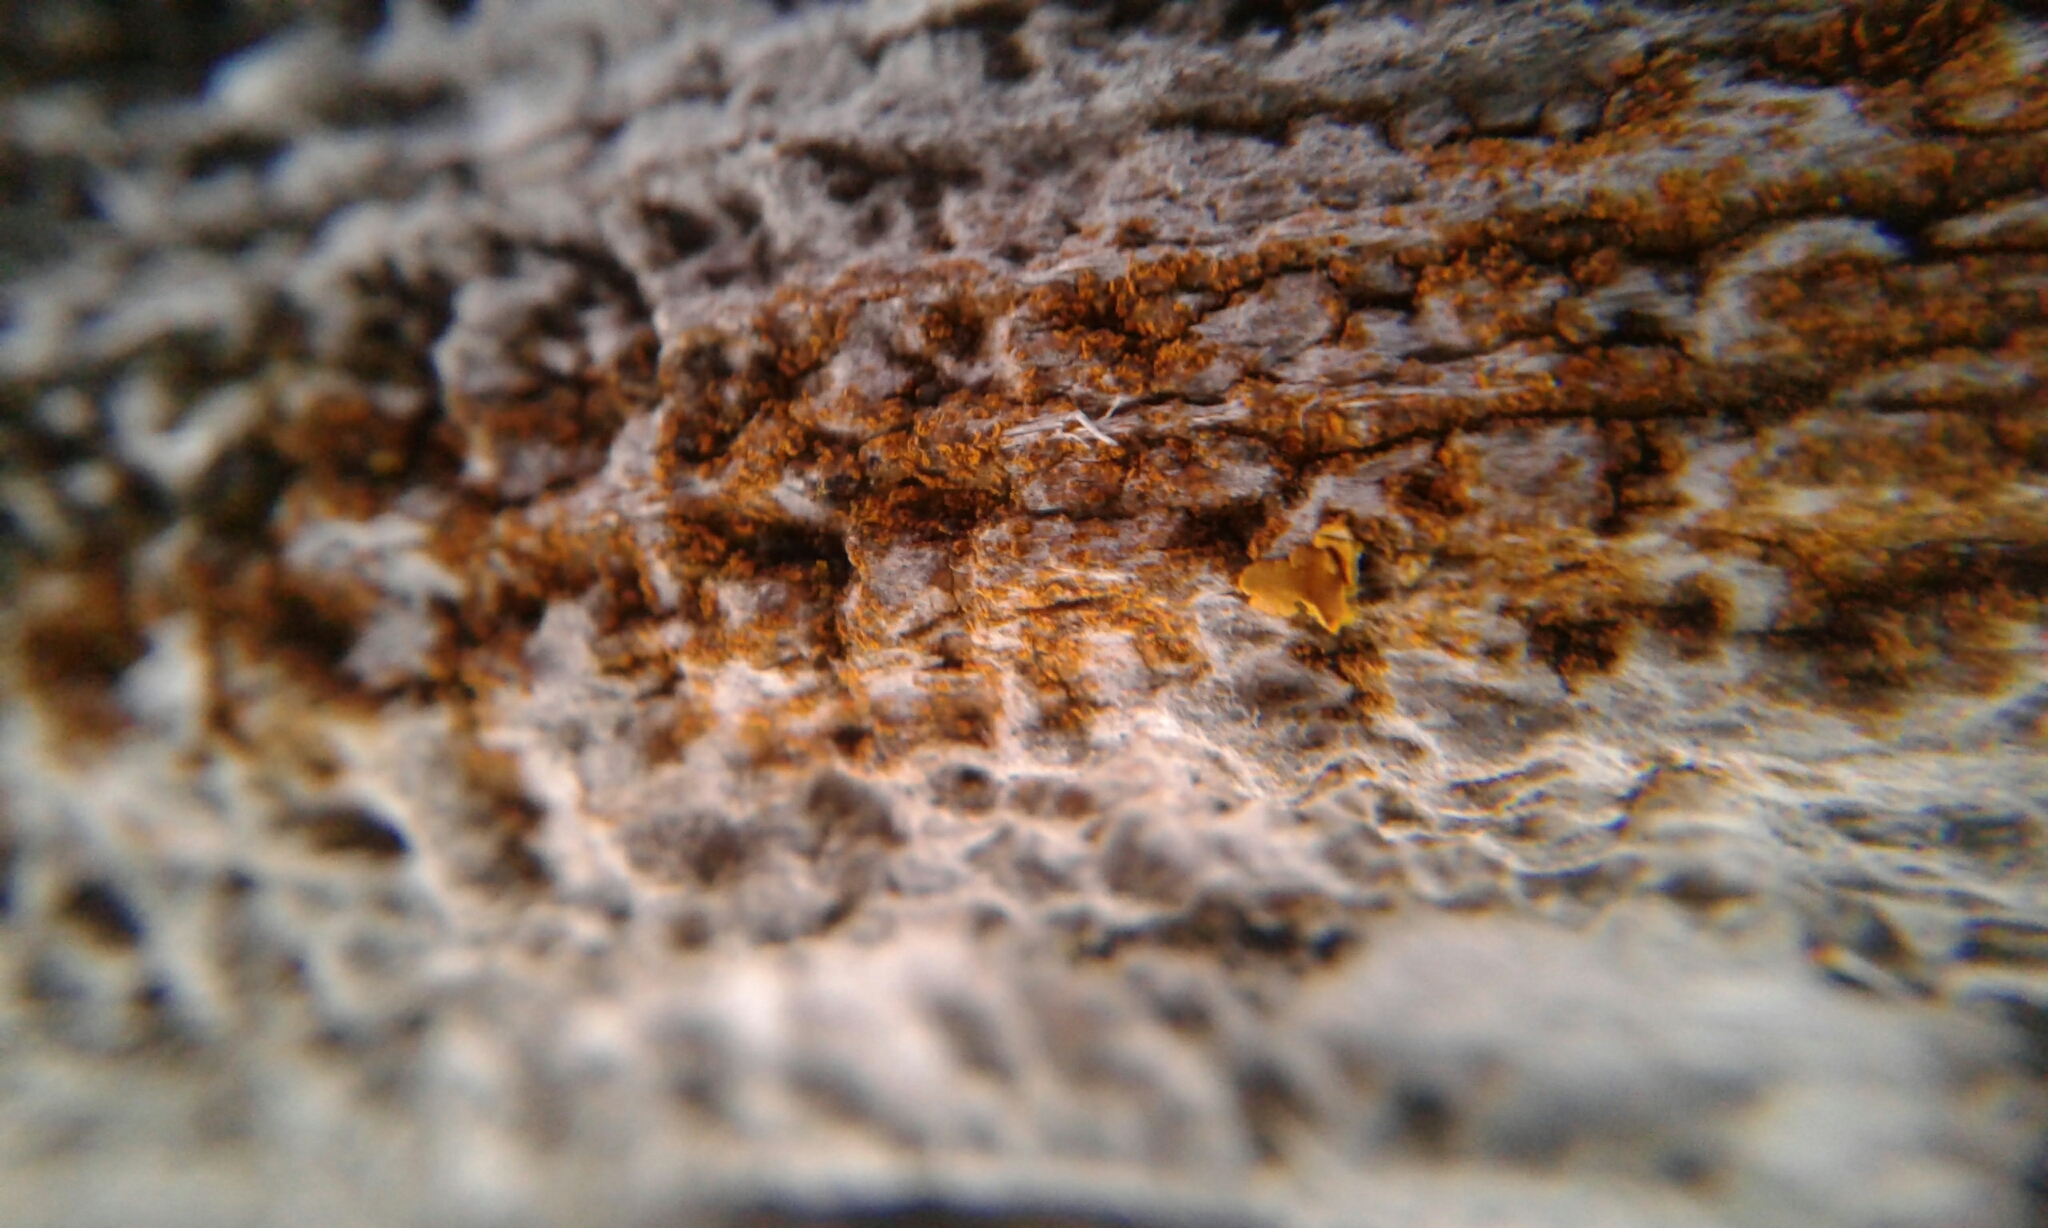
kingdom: Fungi
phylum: Ascomycota
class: Lecanoromycetes
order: Teloschistales
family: Teloschistaceae
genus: Tayloriellina
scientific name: Tayloriellina microphyllina
